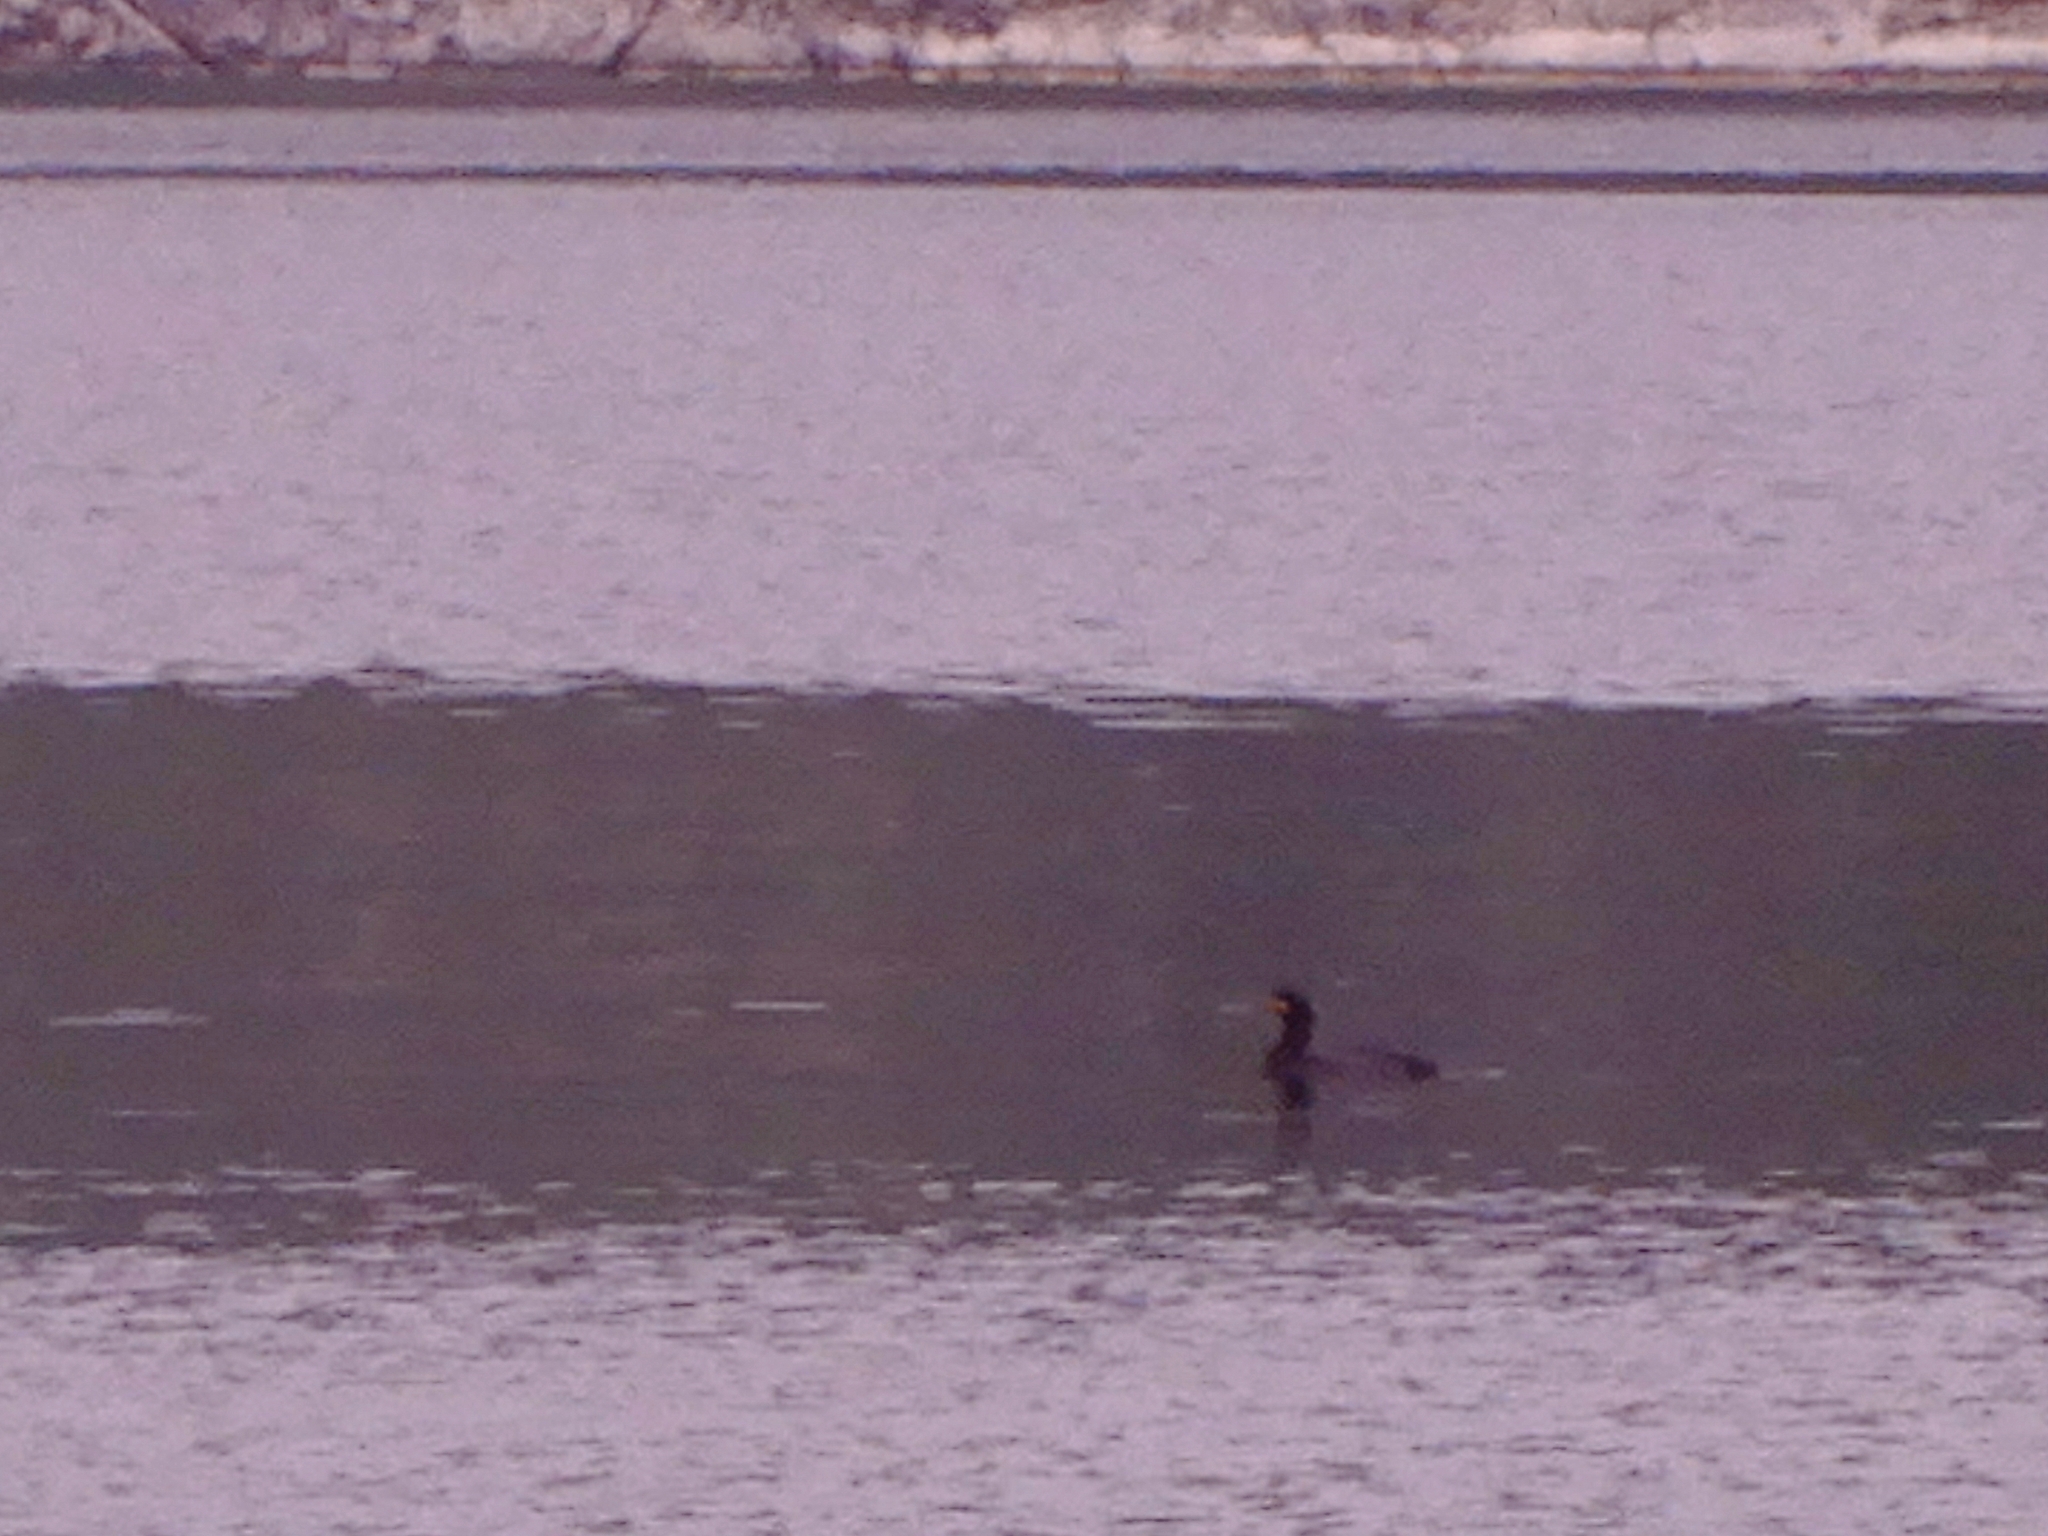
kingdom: Animalia
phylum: Chordata
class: Aves
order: Suliformes
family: Phalacrocoracidae
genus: Phalacrocorax
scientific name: Phalacrocorax carbo
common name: Great cormorant
